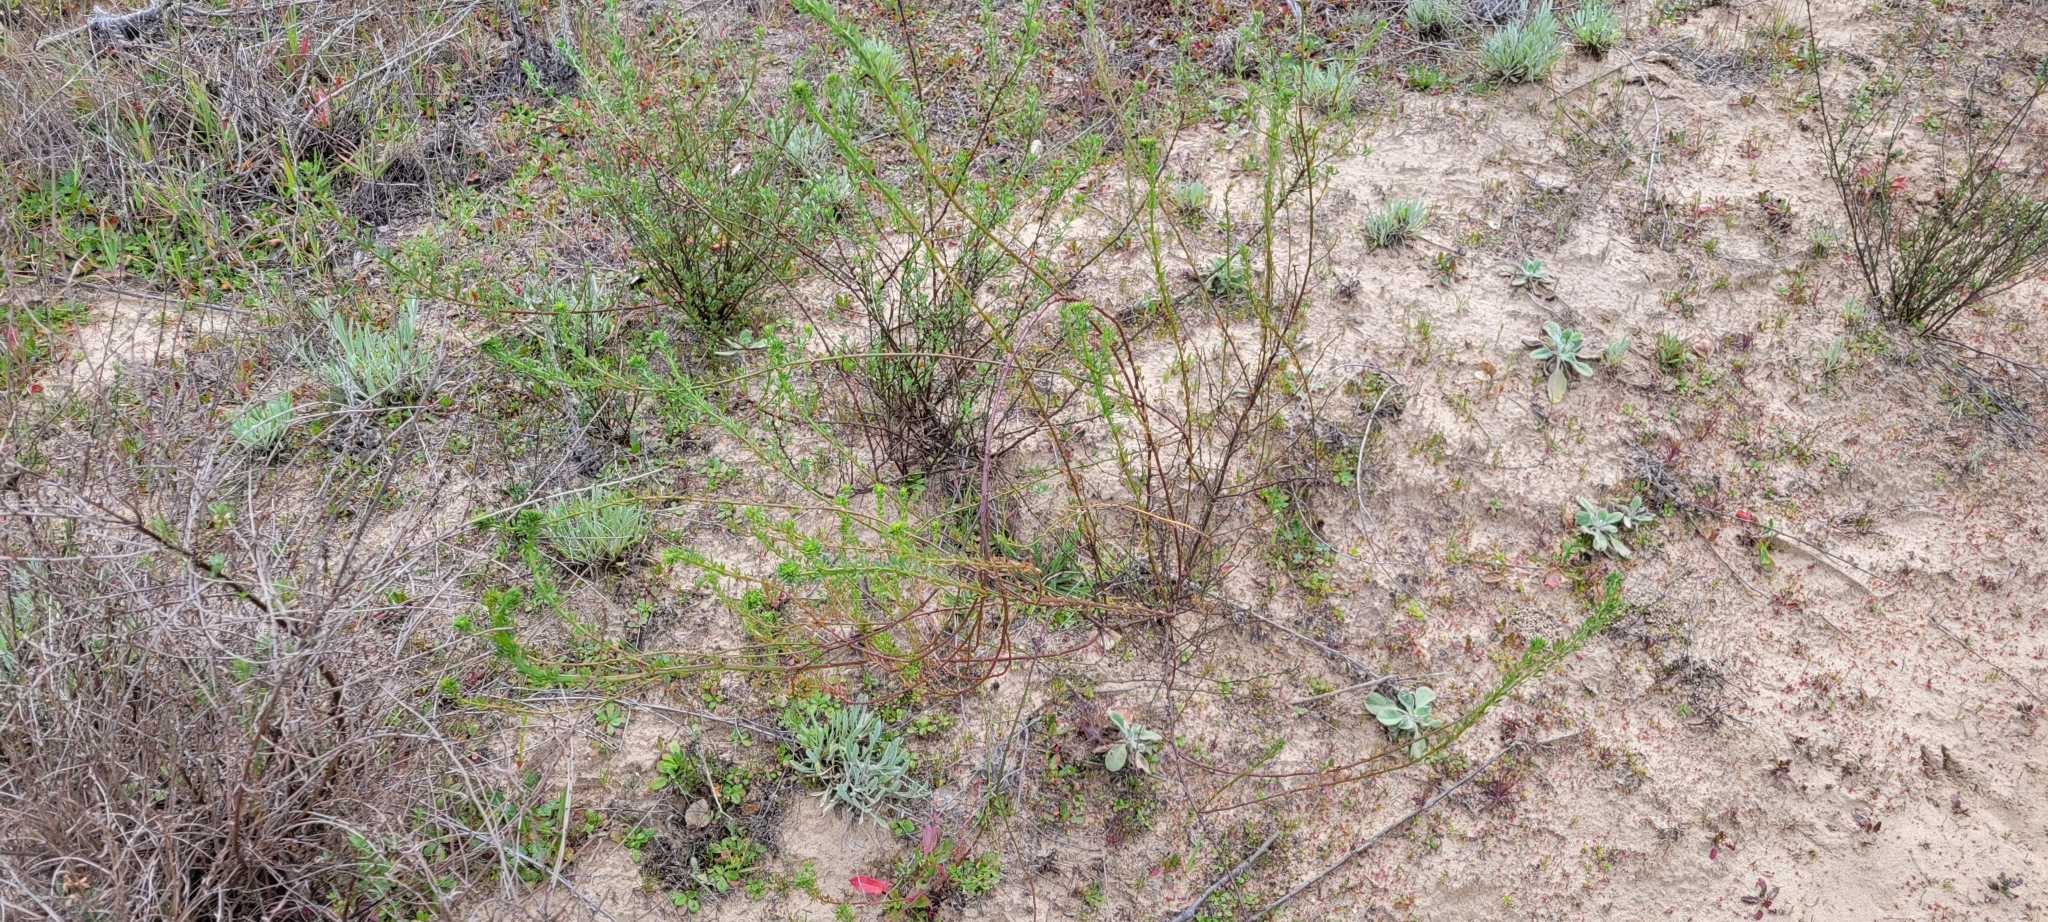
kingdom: Plantae
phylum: Tracheophyta
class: Magnoliopsida
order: Fabales
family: Fabaceae
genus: Acmispon
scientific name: Acmispon glaber
